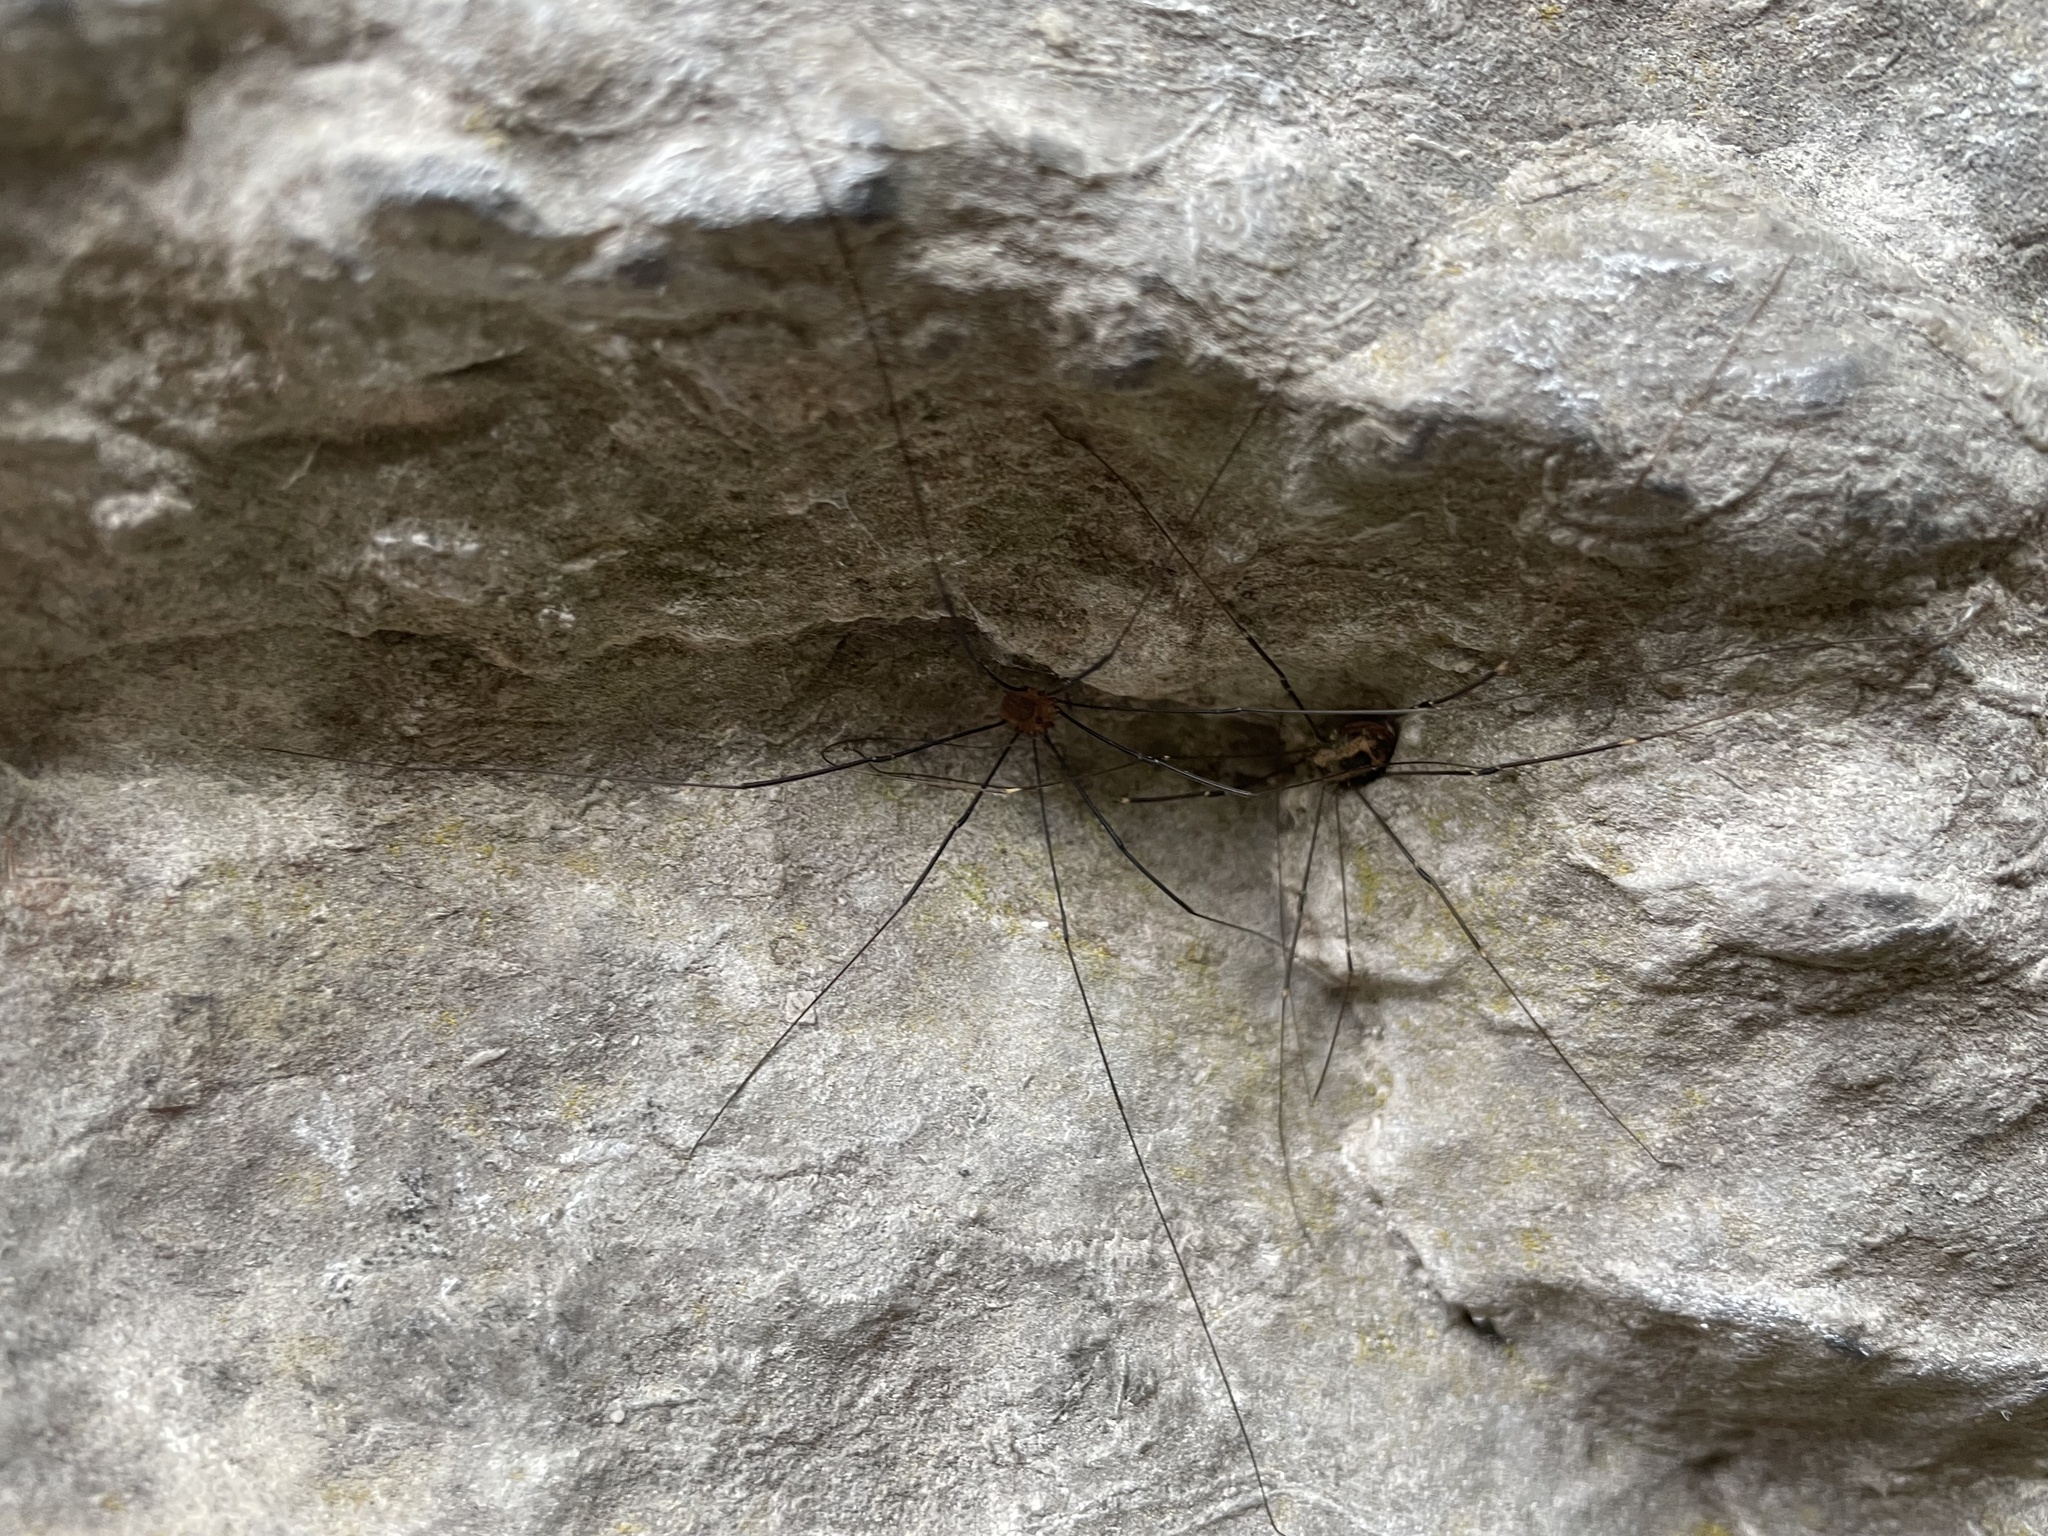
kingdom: Animalia
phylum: Arthropoda
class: Arachnida
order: Opiliones
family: Sclerosomatidae
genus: Leiobunum
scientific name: Leiobunum rotundum
